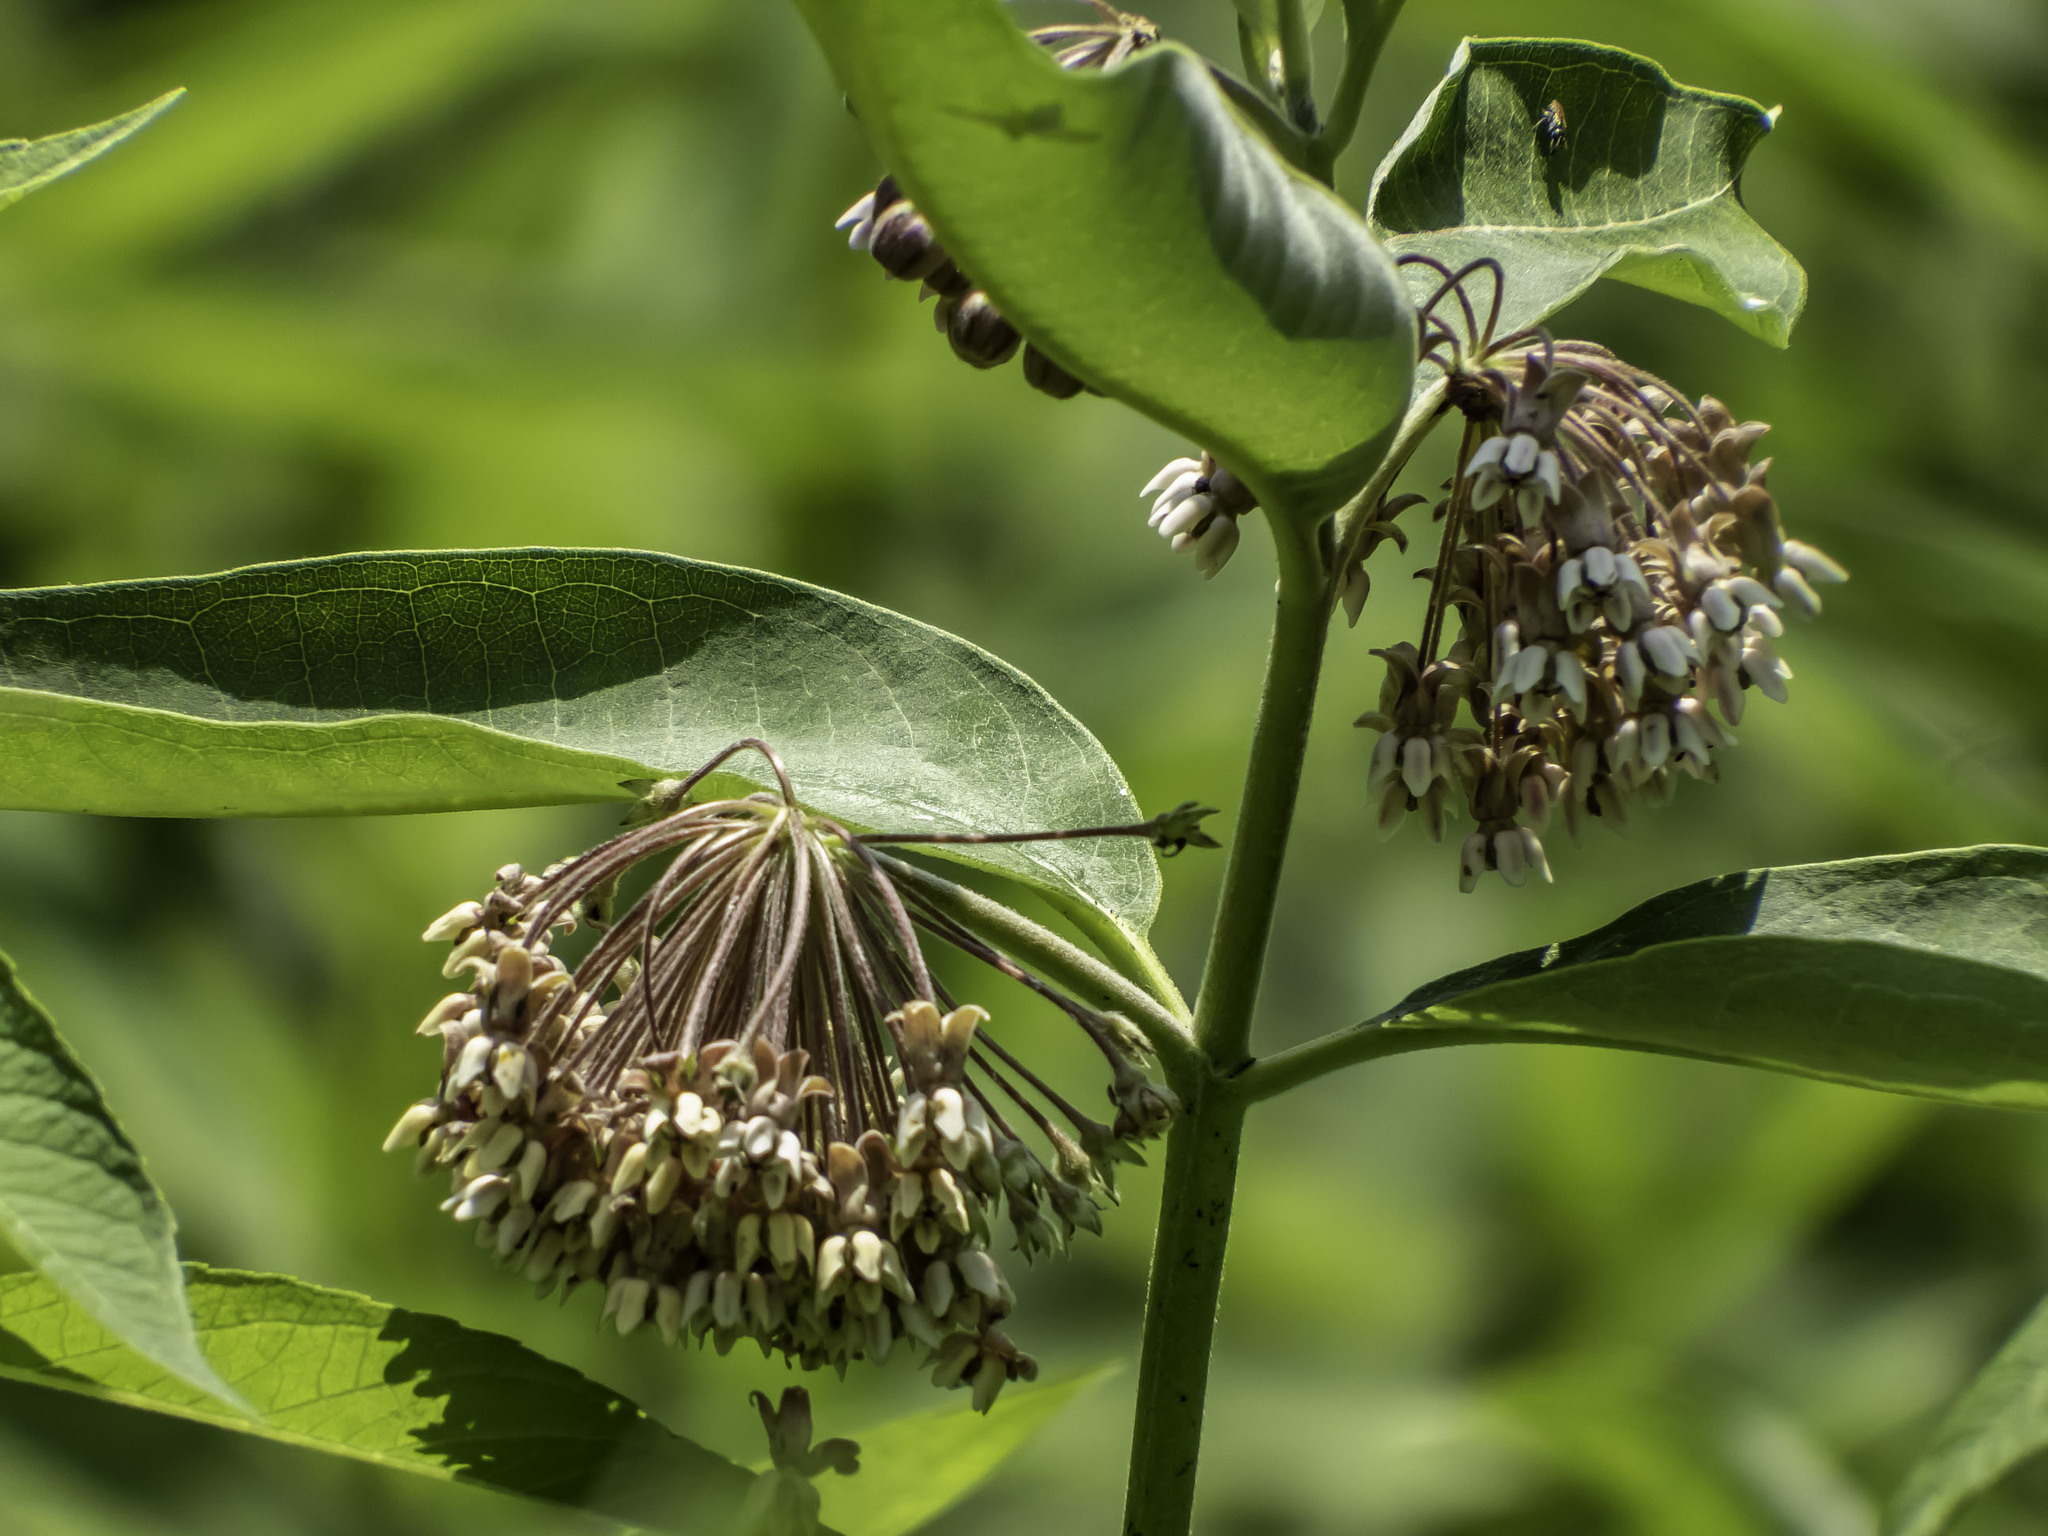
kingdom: Plantae
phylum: Tracheophyta
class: Magnoliopsida
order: Gentianales
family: Apocynaceae
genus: Asclepias
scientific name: Asclepias syriaca
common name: Common milkweed
